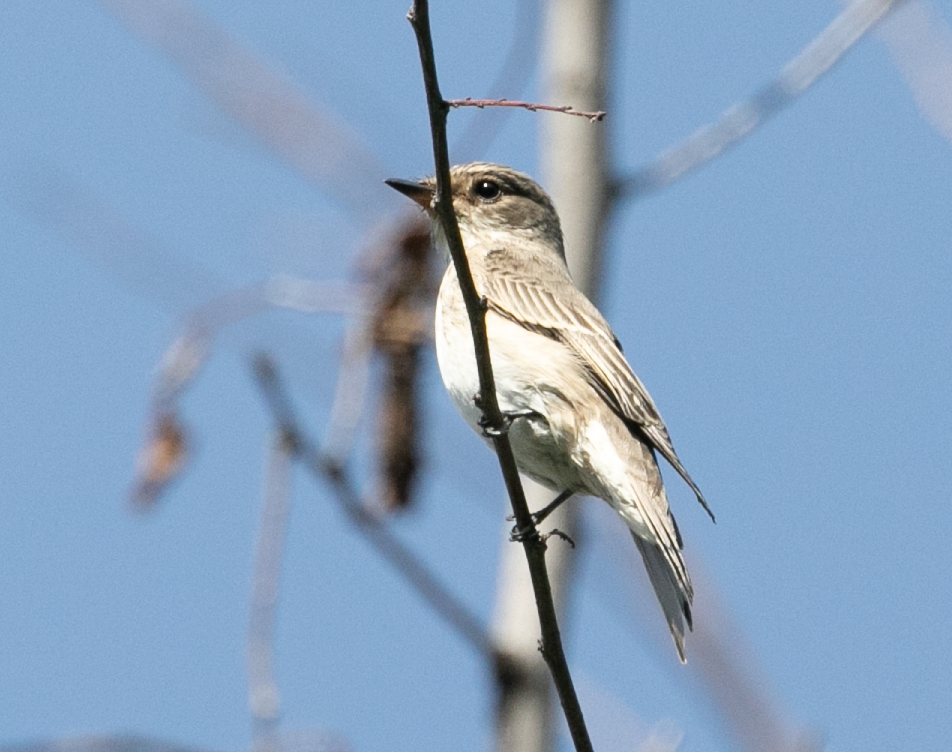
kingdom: Animalia
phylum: Chordata
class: Aves
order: Passeriformes
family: Muscicapidae
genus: Muscicapa
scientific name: Muscicapa striata
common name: Spotted flycatcher
